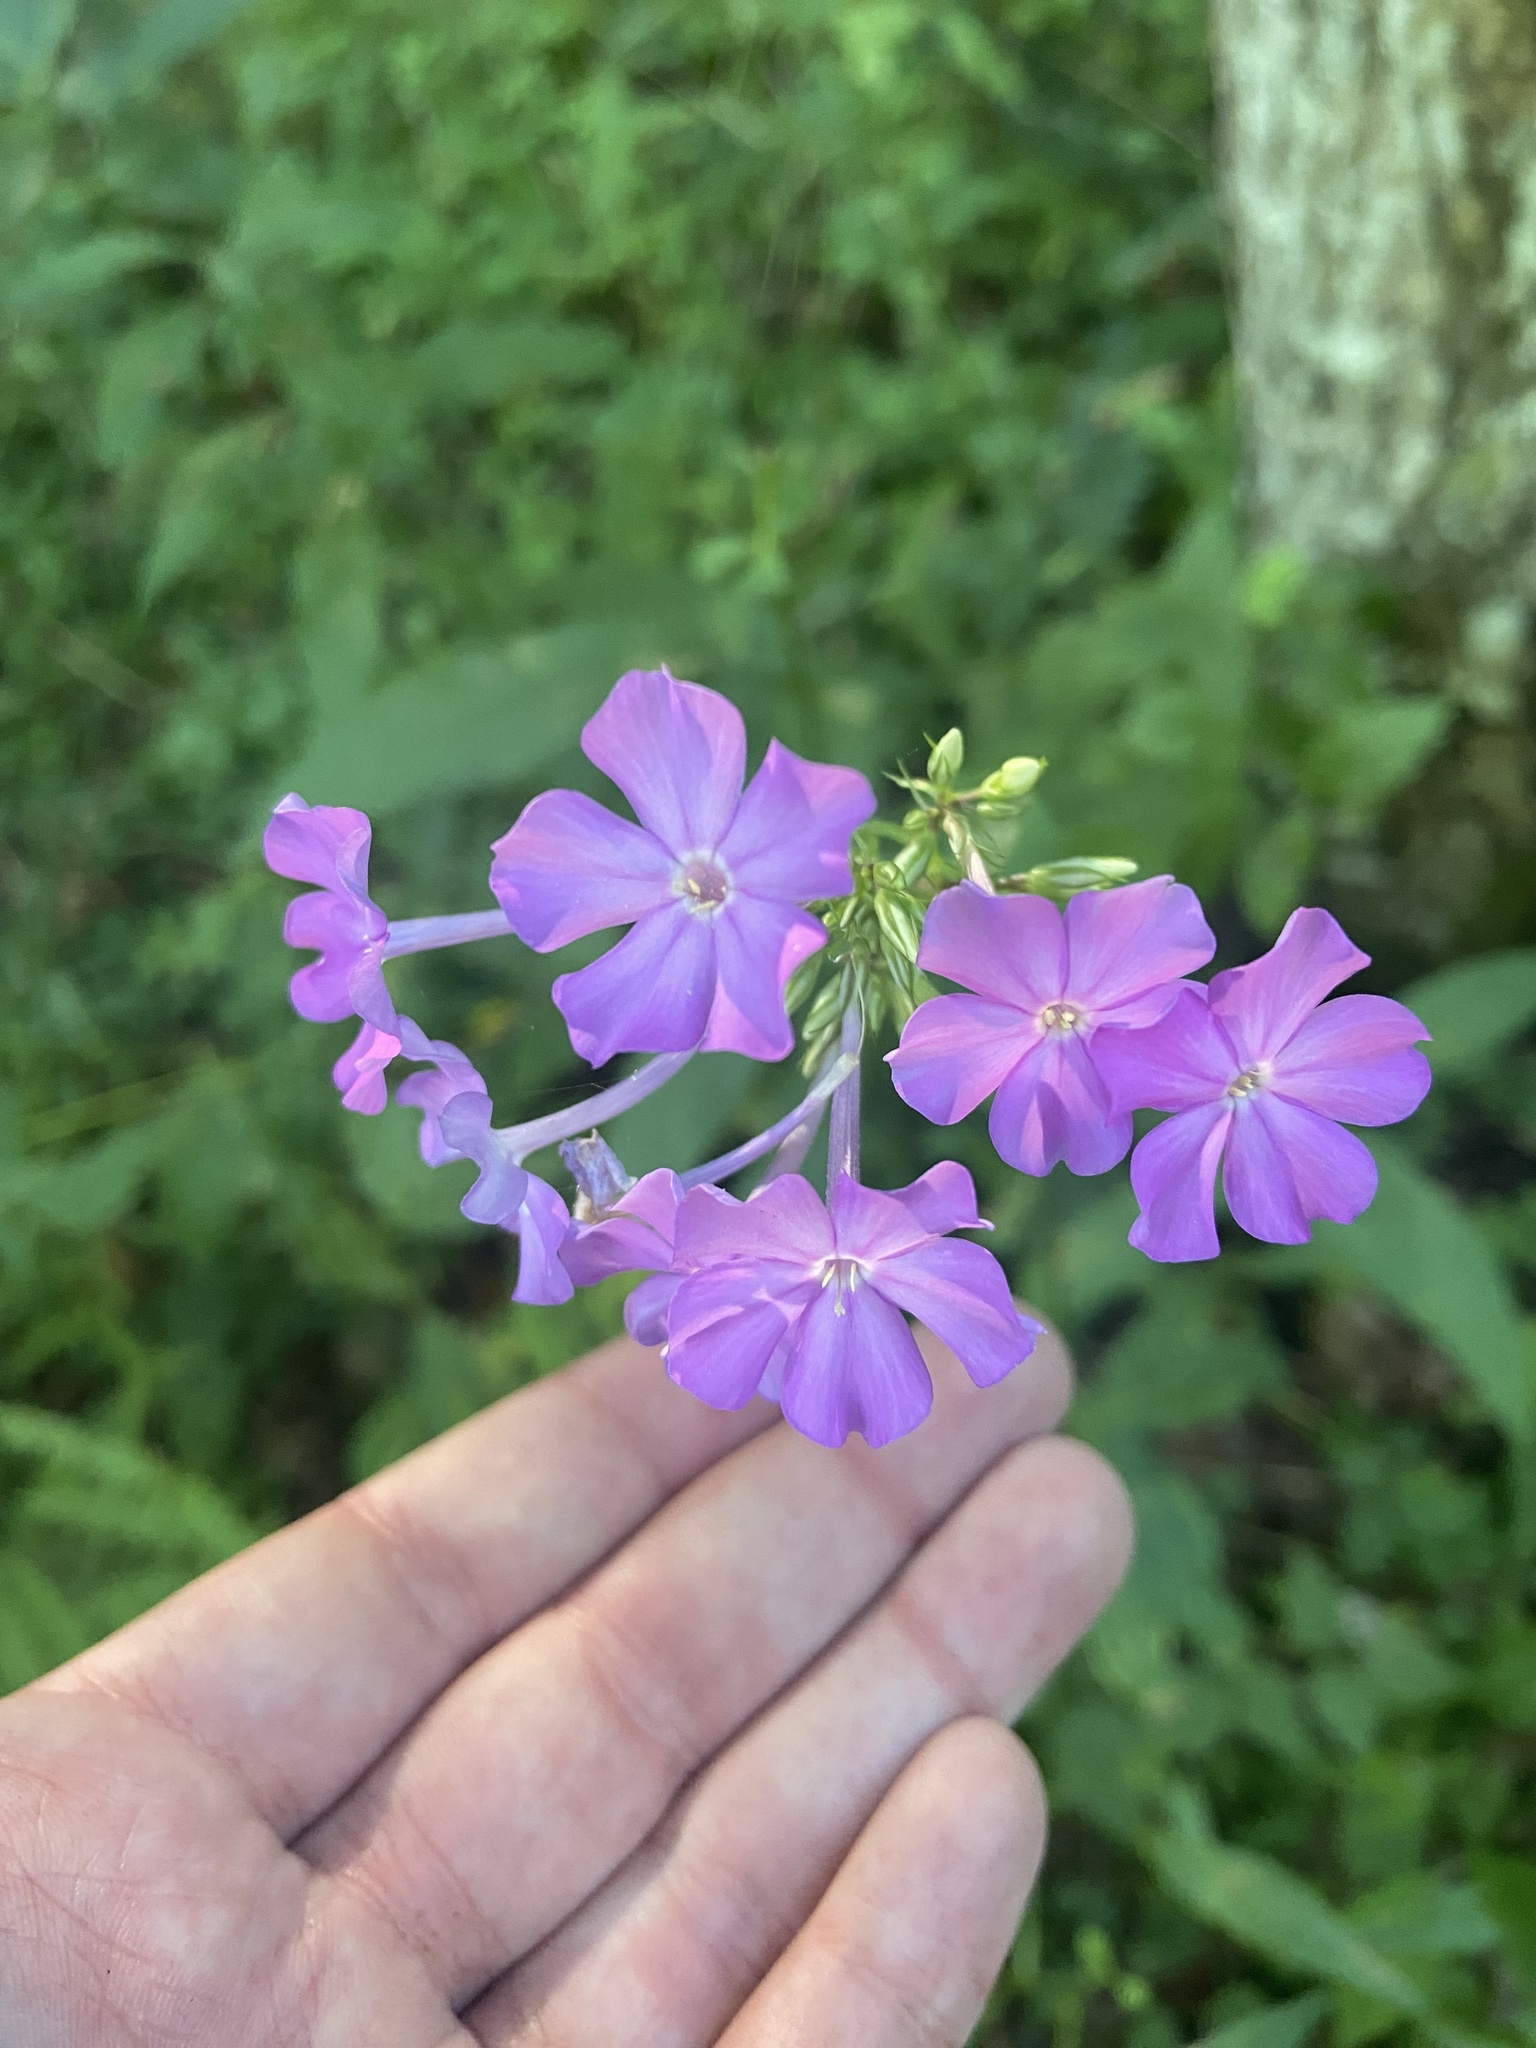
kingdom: Plantae
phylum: Tracheophyta
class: Magnoliopsida
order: Ericales
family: Polemoniaceae
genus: Phlox
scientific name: Phlox paniculata
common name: Fall phlox
